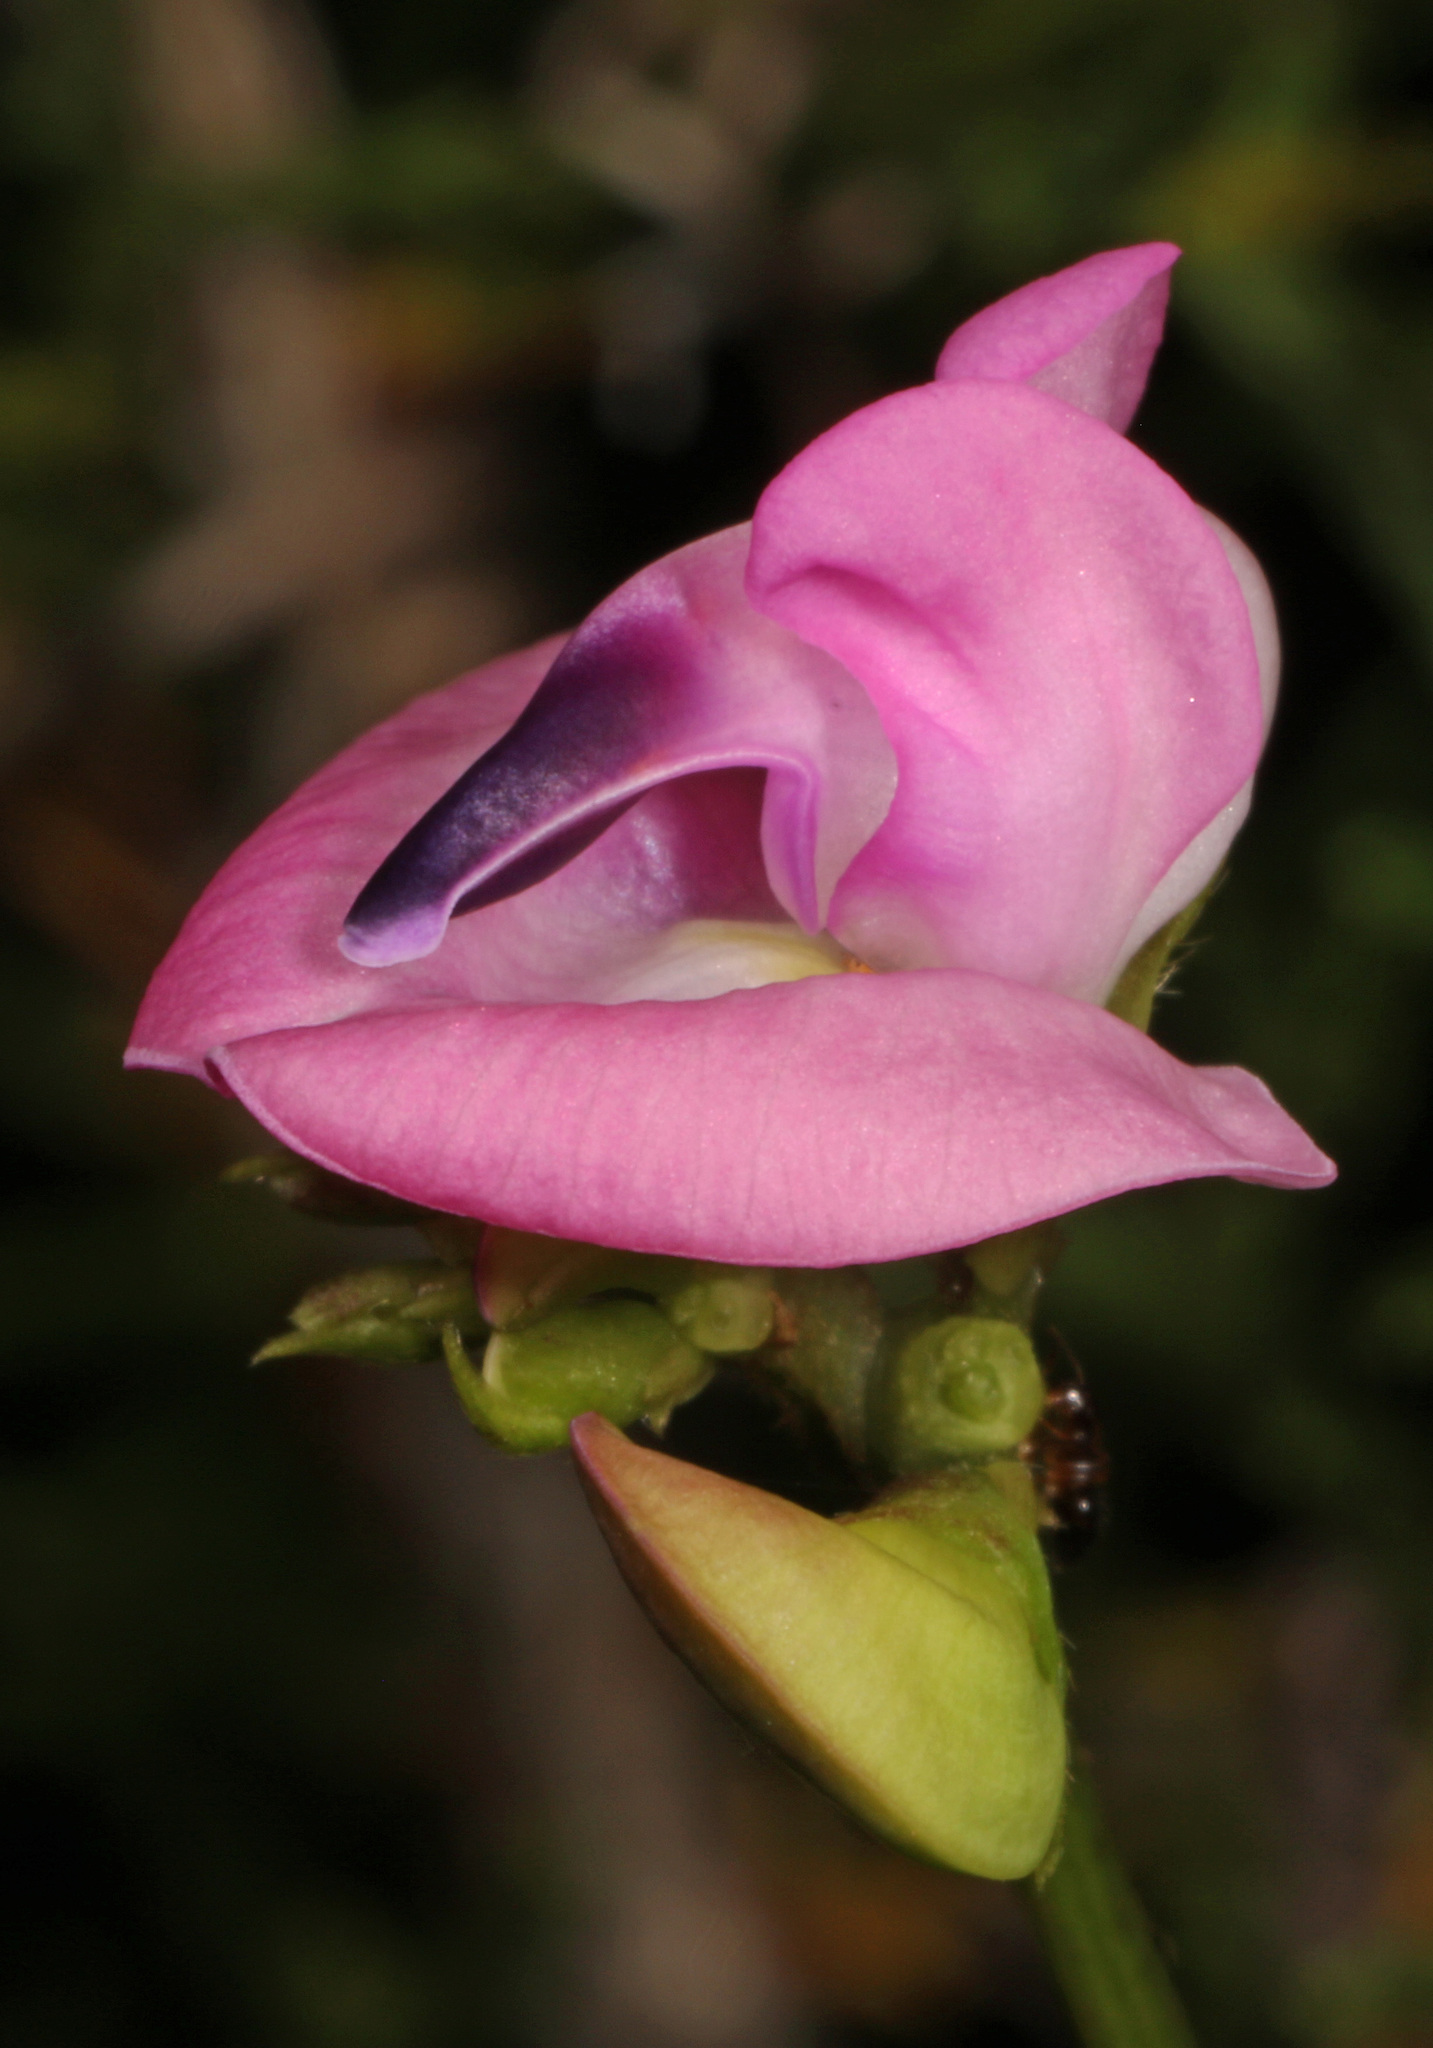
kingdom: Plantae
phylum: Tracheophyta
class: Magnoliopsida
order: Fabales
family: Fabaceae
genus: Strophostyles
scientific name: Strophostyles umbellata
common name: Perennial wild bean
